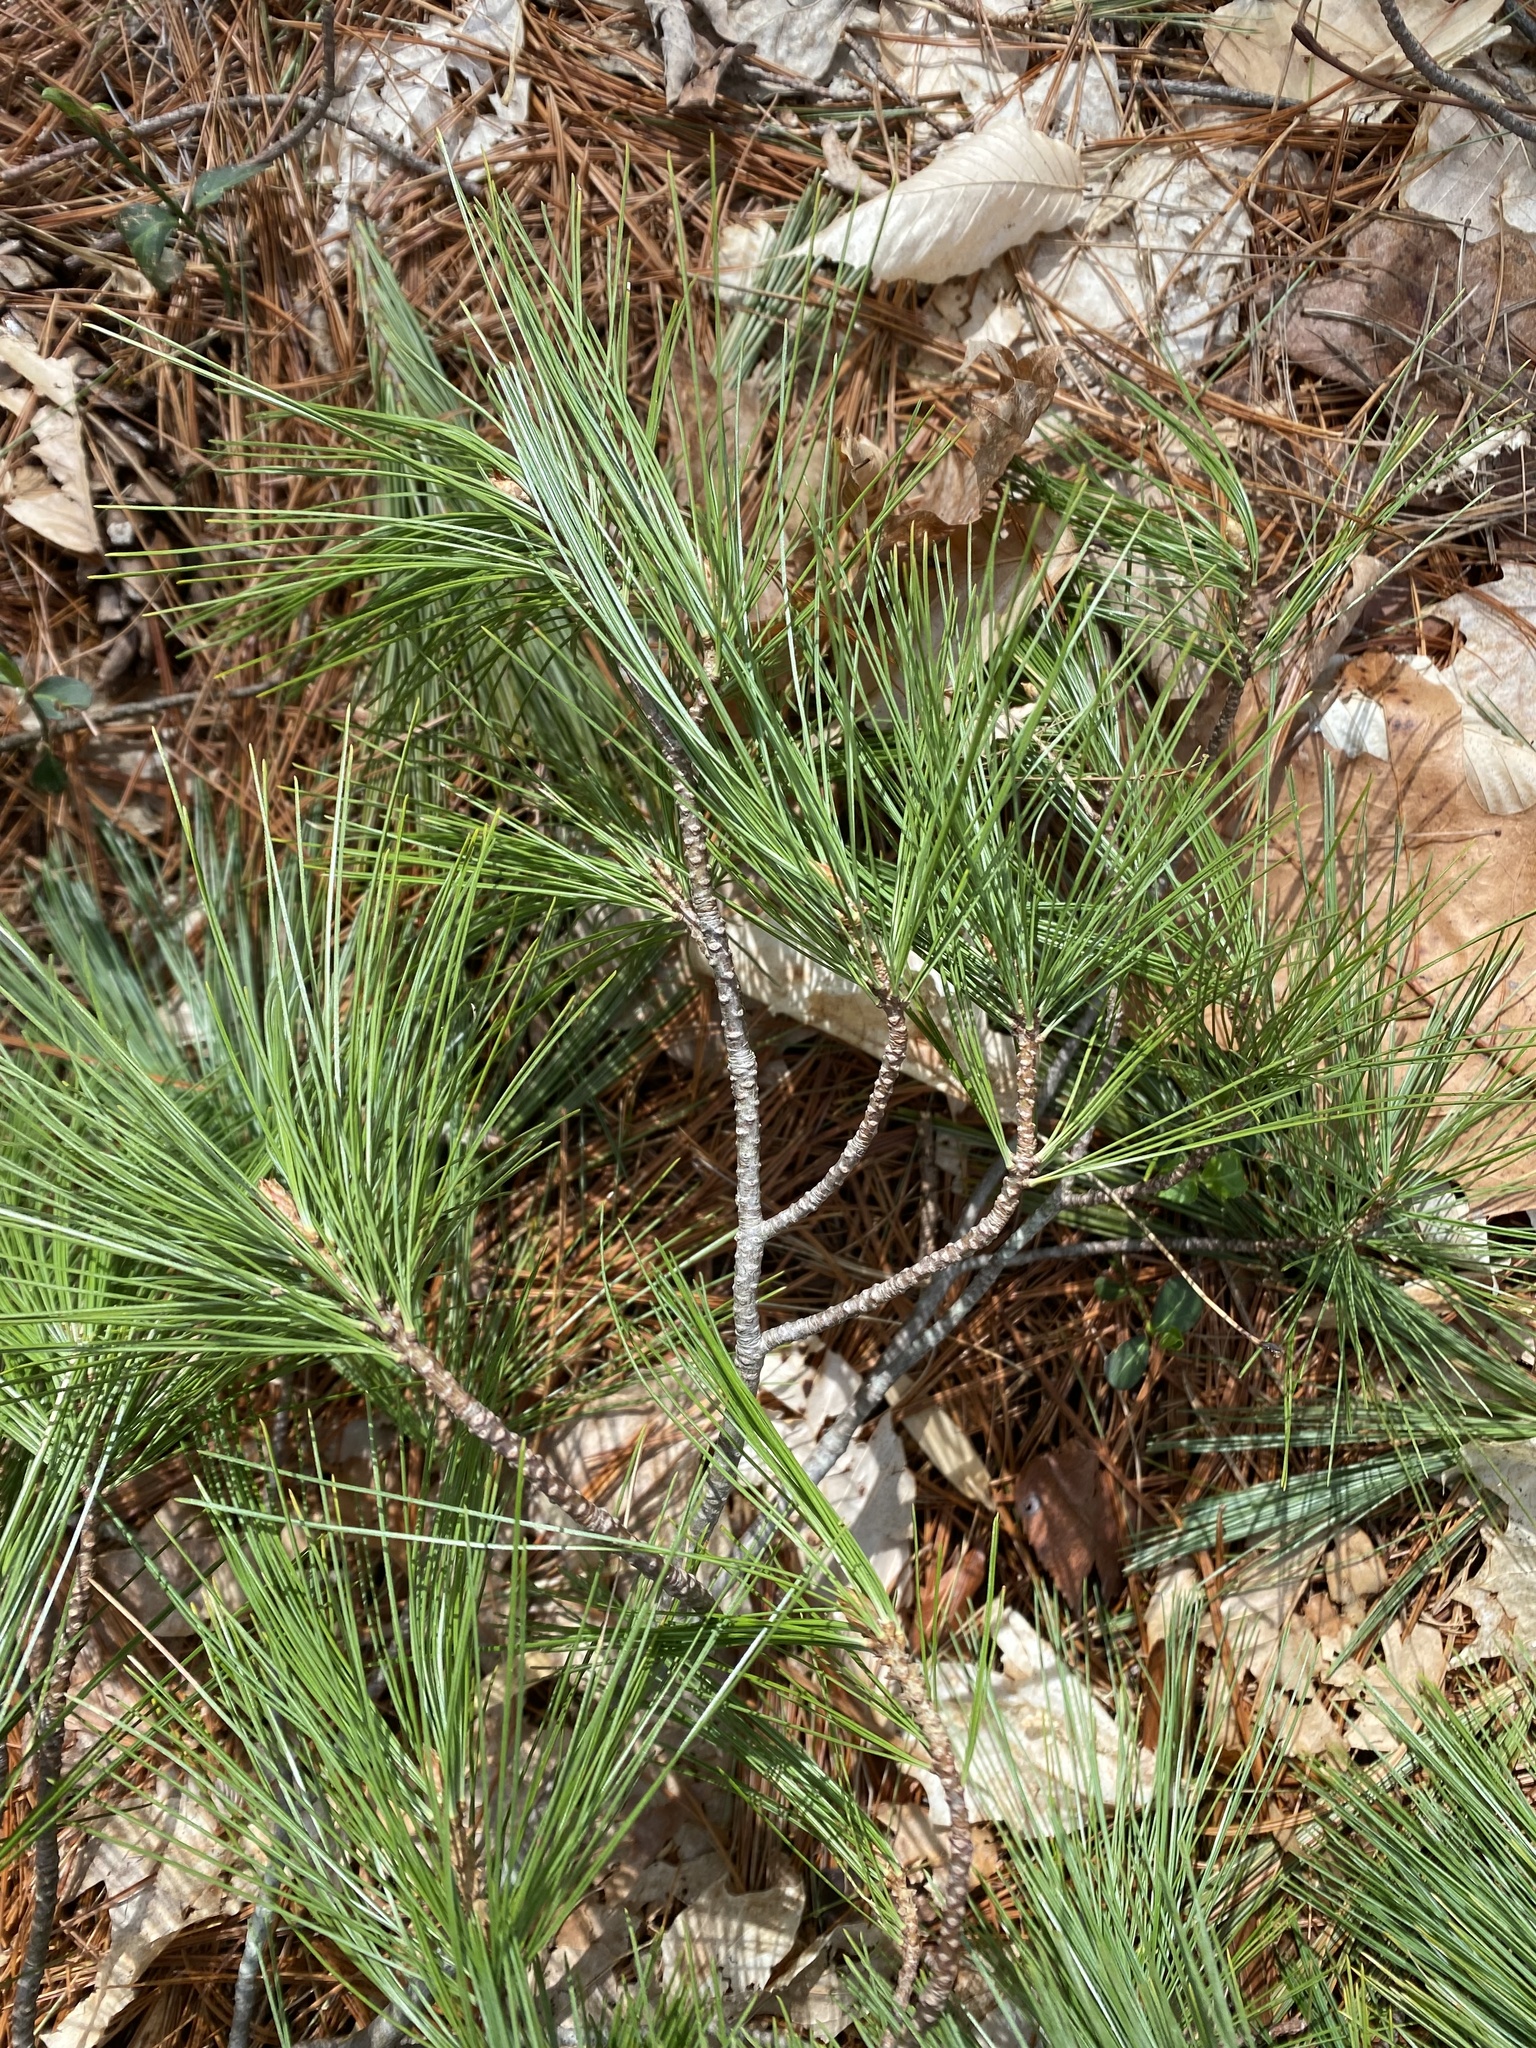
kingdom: Plantae
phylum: Tracheophyta
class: Pinopsida
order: Pinales
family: Pinaceae
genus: Pinus
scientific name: Pinus strobus
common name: Weymouth pine
